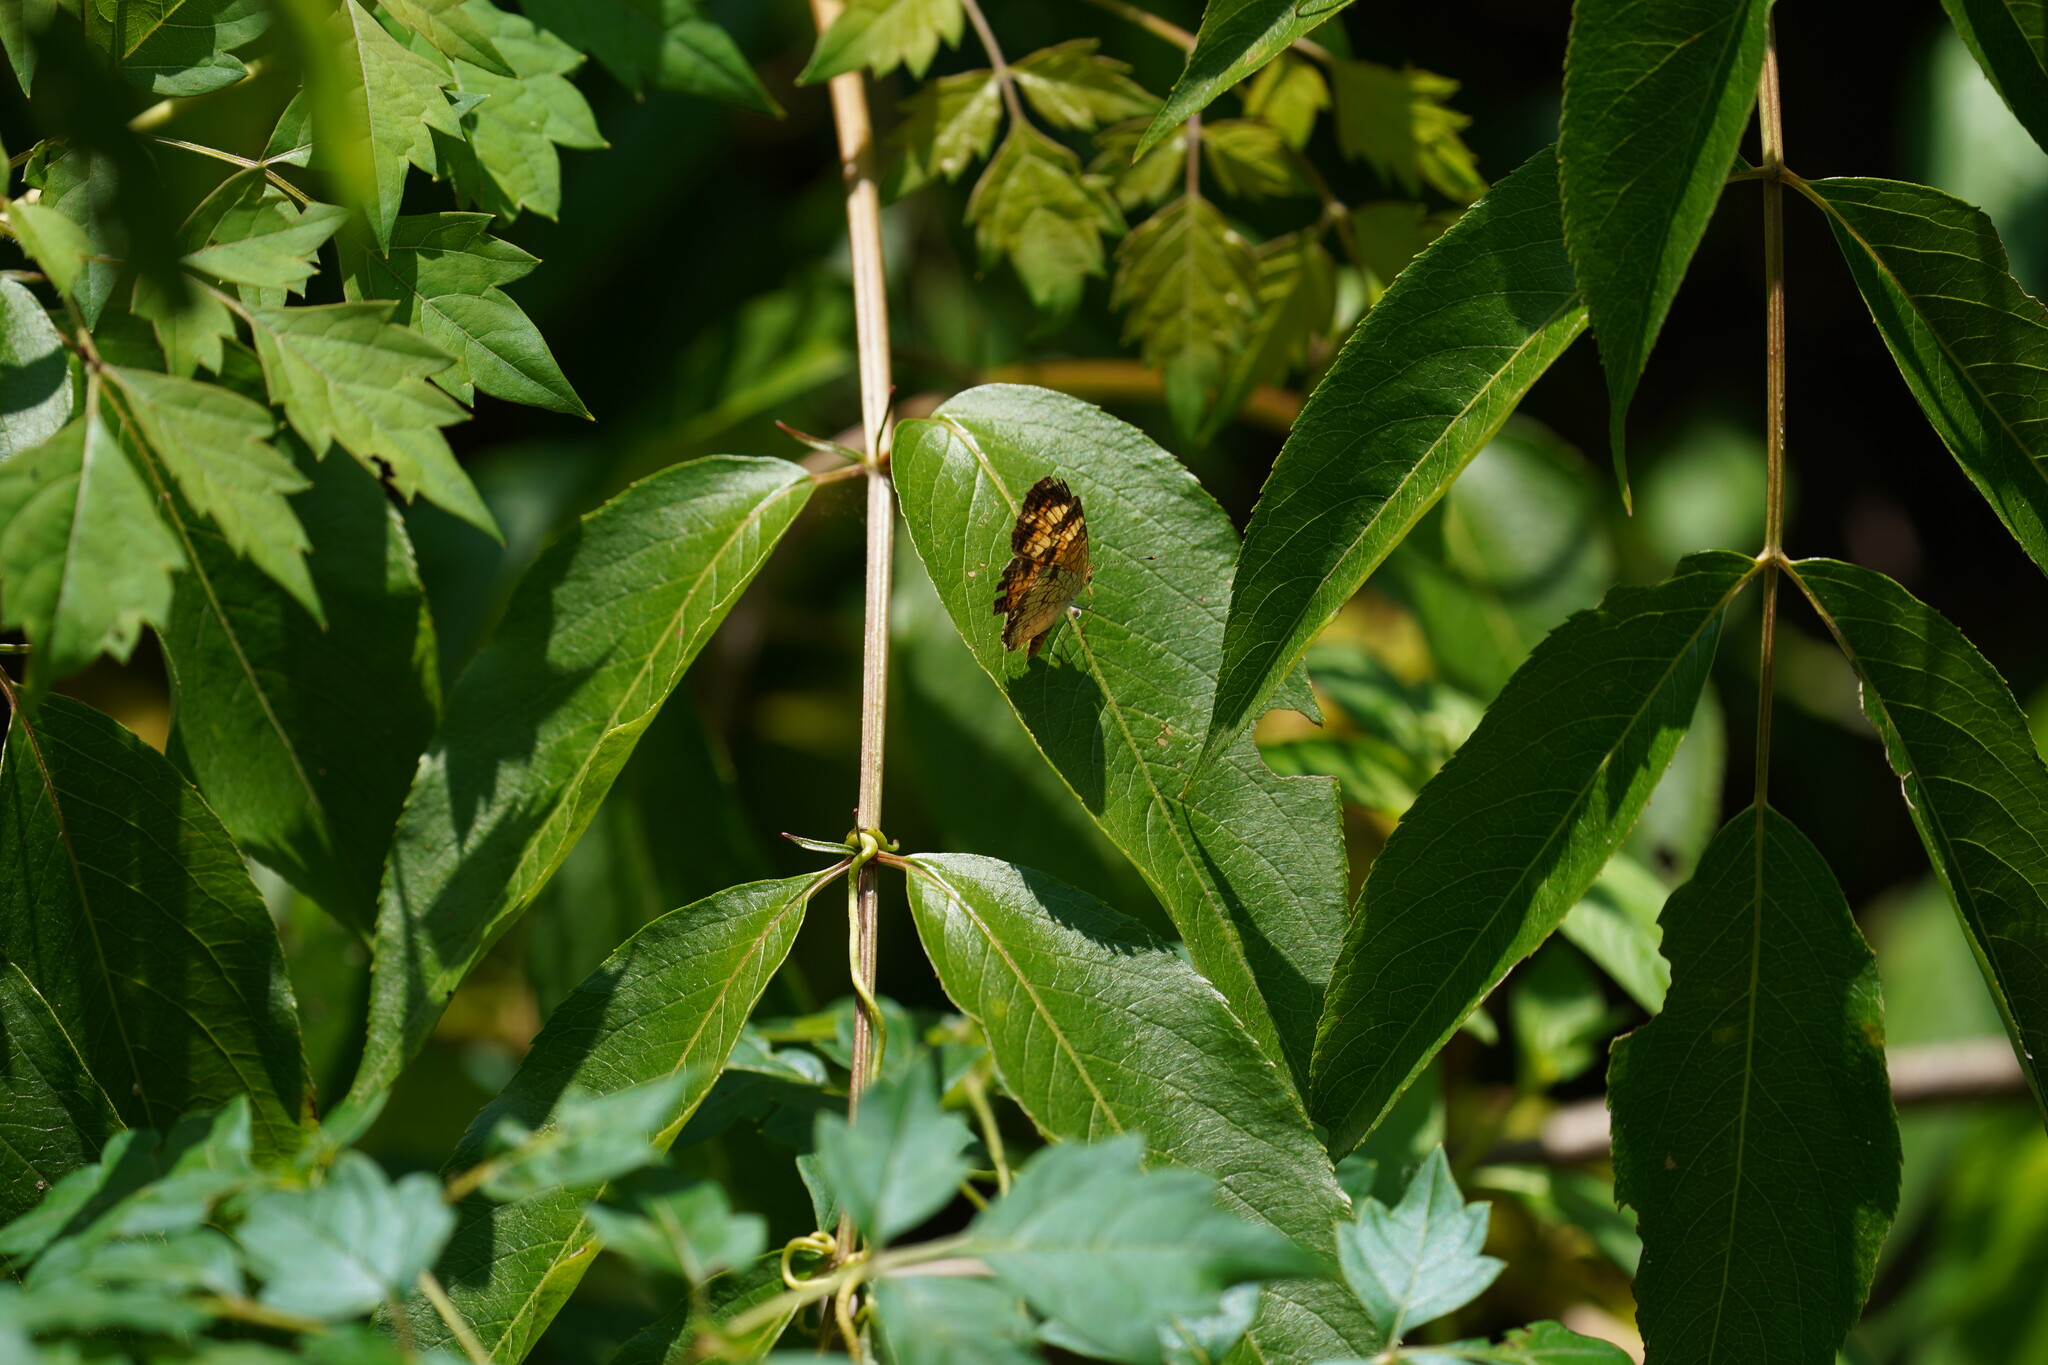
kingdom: Animalia
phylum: Arthropoda
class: Insecta
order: Lepidoptera
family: Nymphalidae
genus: Phyciodes
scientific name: Phyciodes tharos
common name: Pearl crescent
